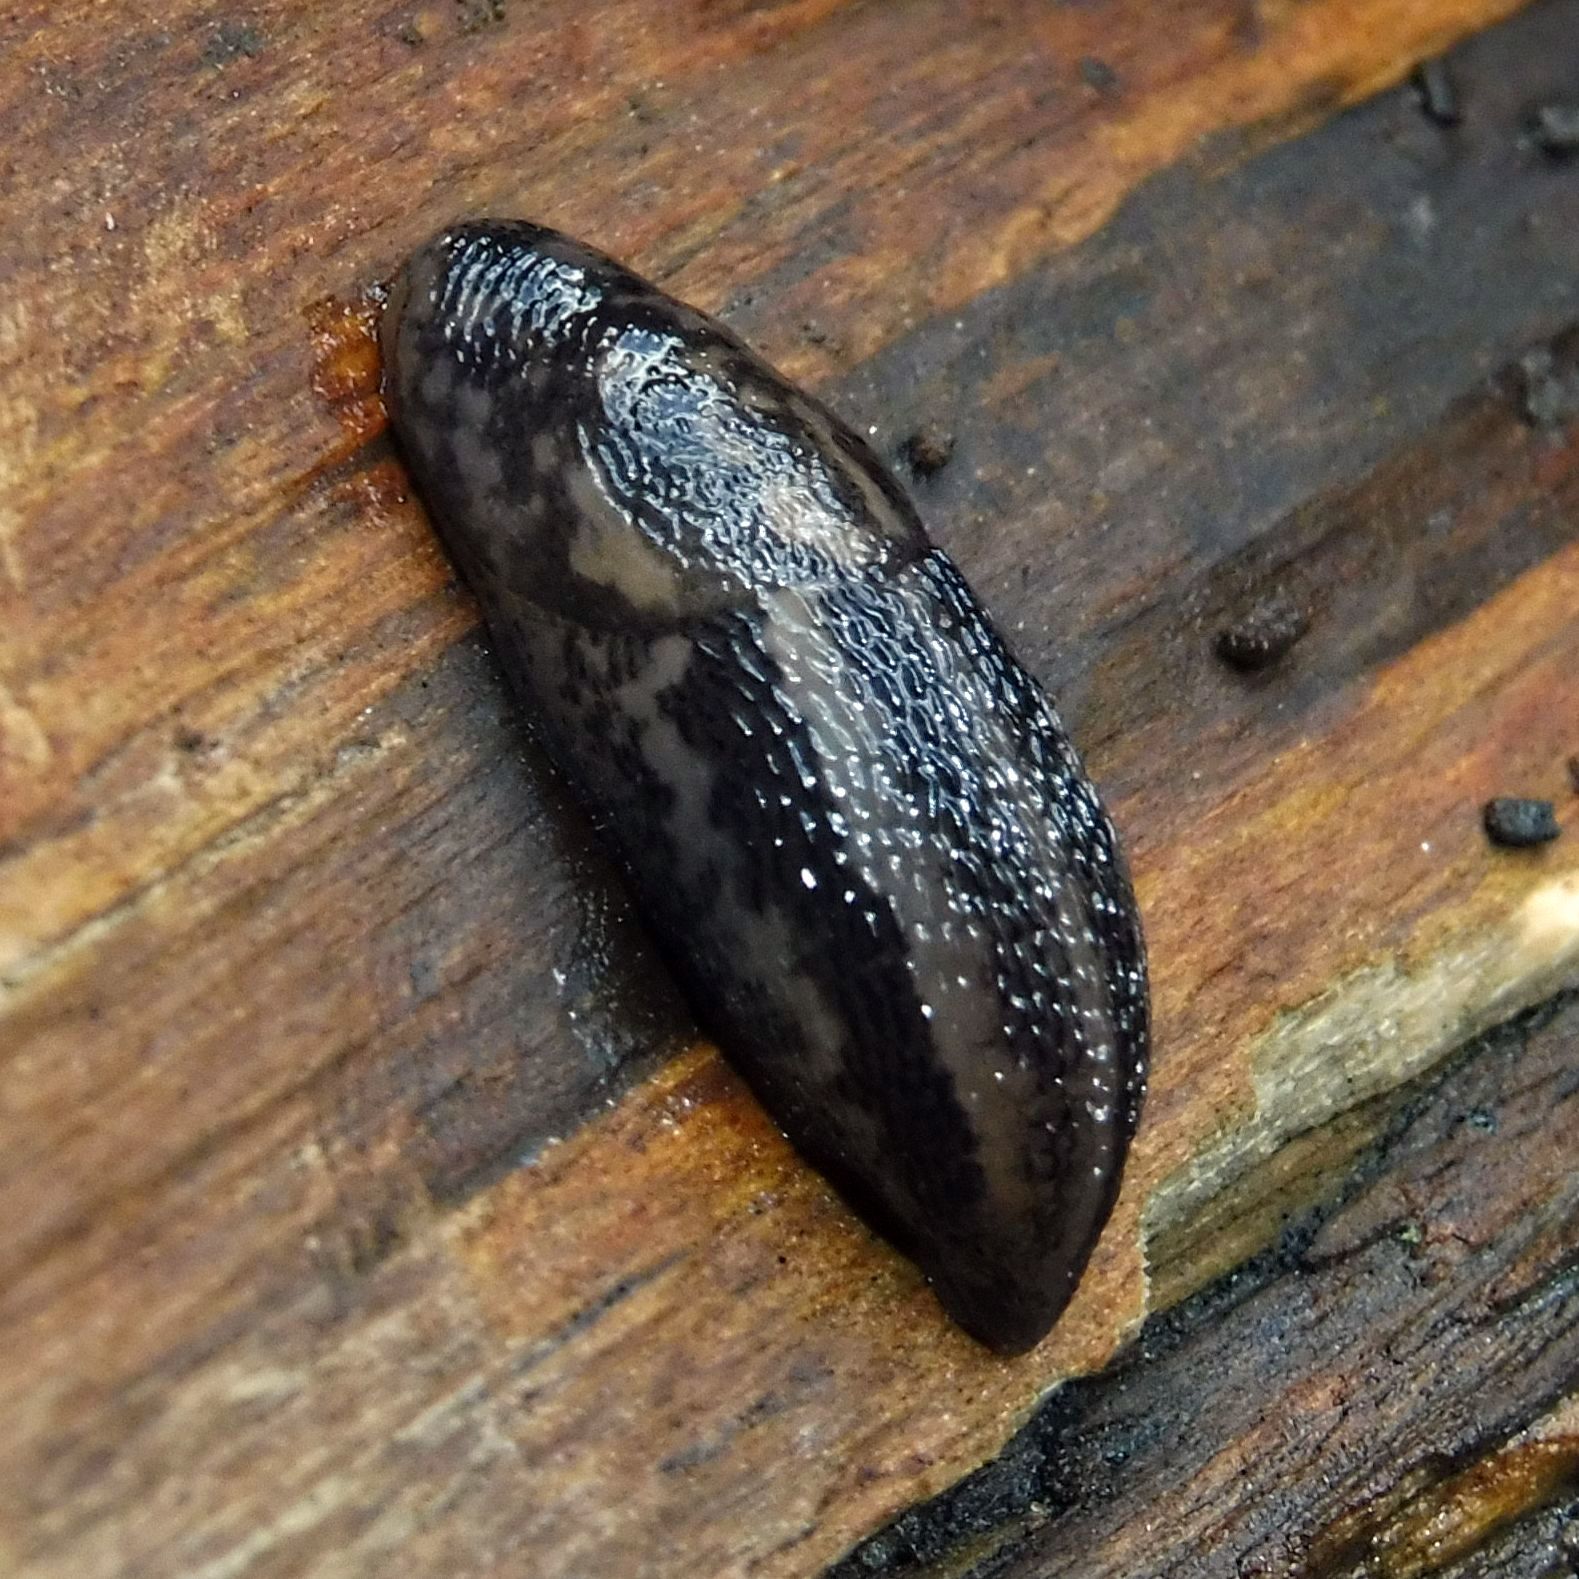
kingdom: Animalia
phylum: Mollusca
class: Gastropoda
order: Stylommatophora
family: Limacidae
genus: Limax
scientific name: Limax maximus
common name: Great grey slug
